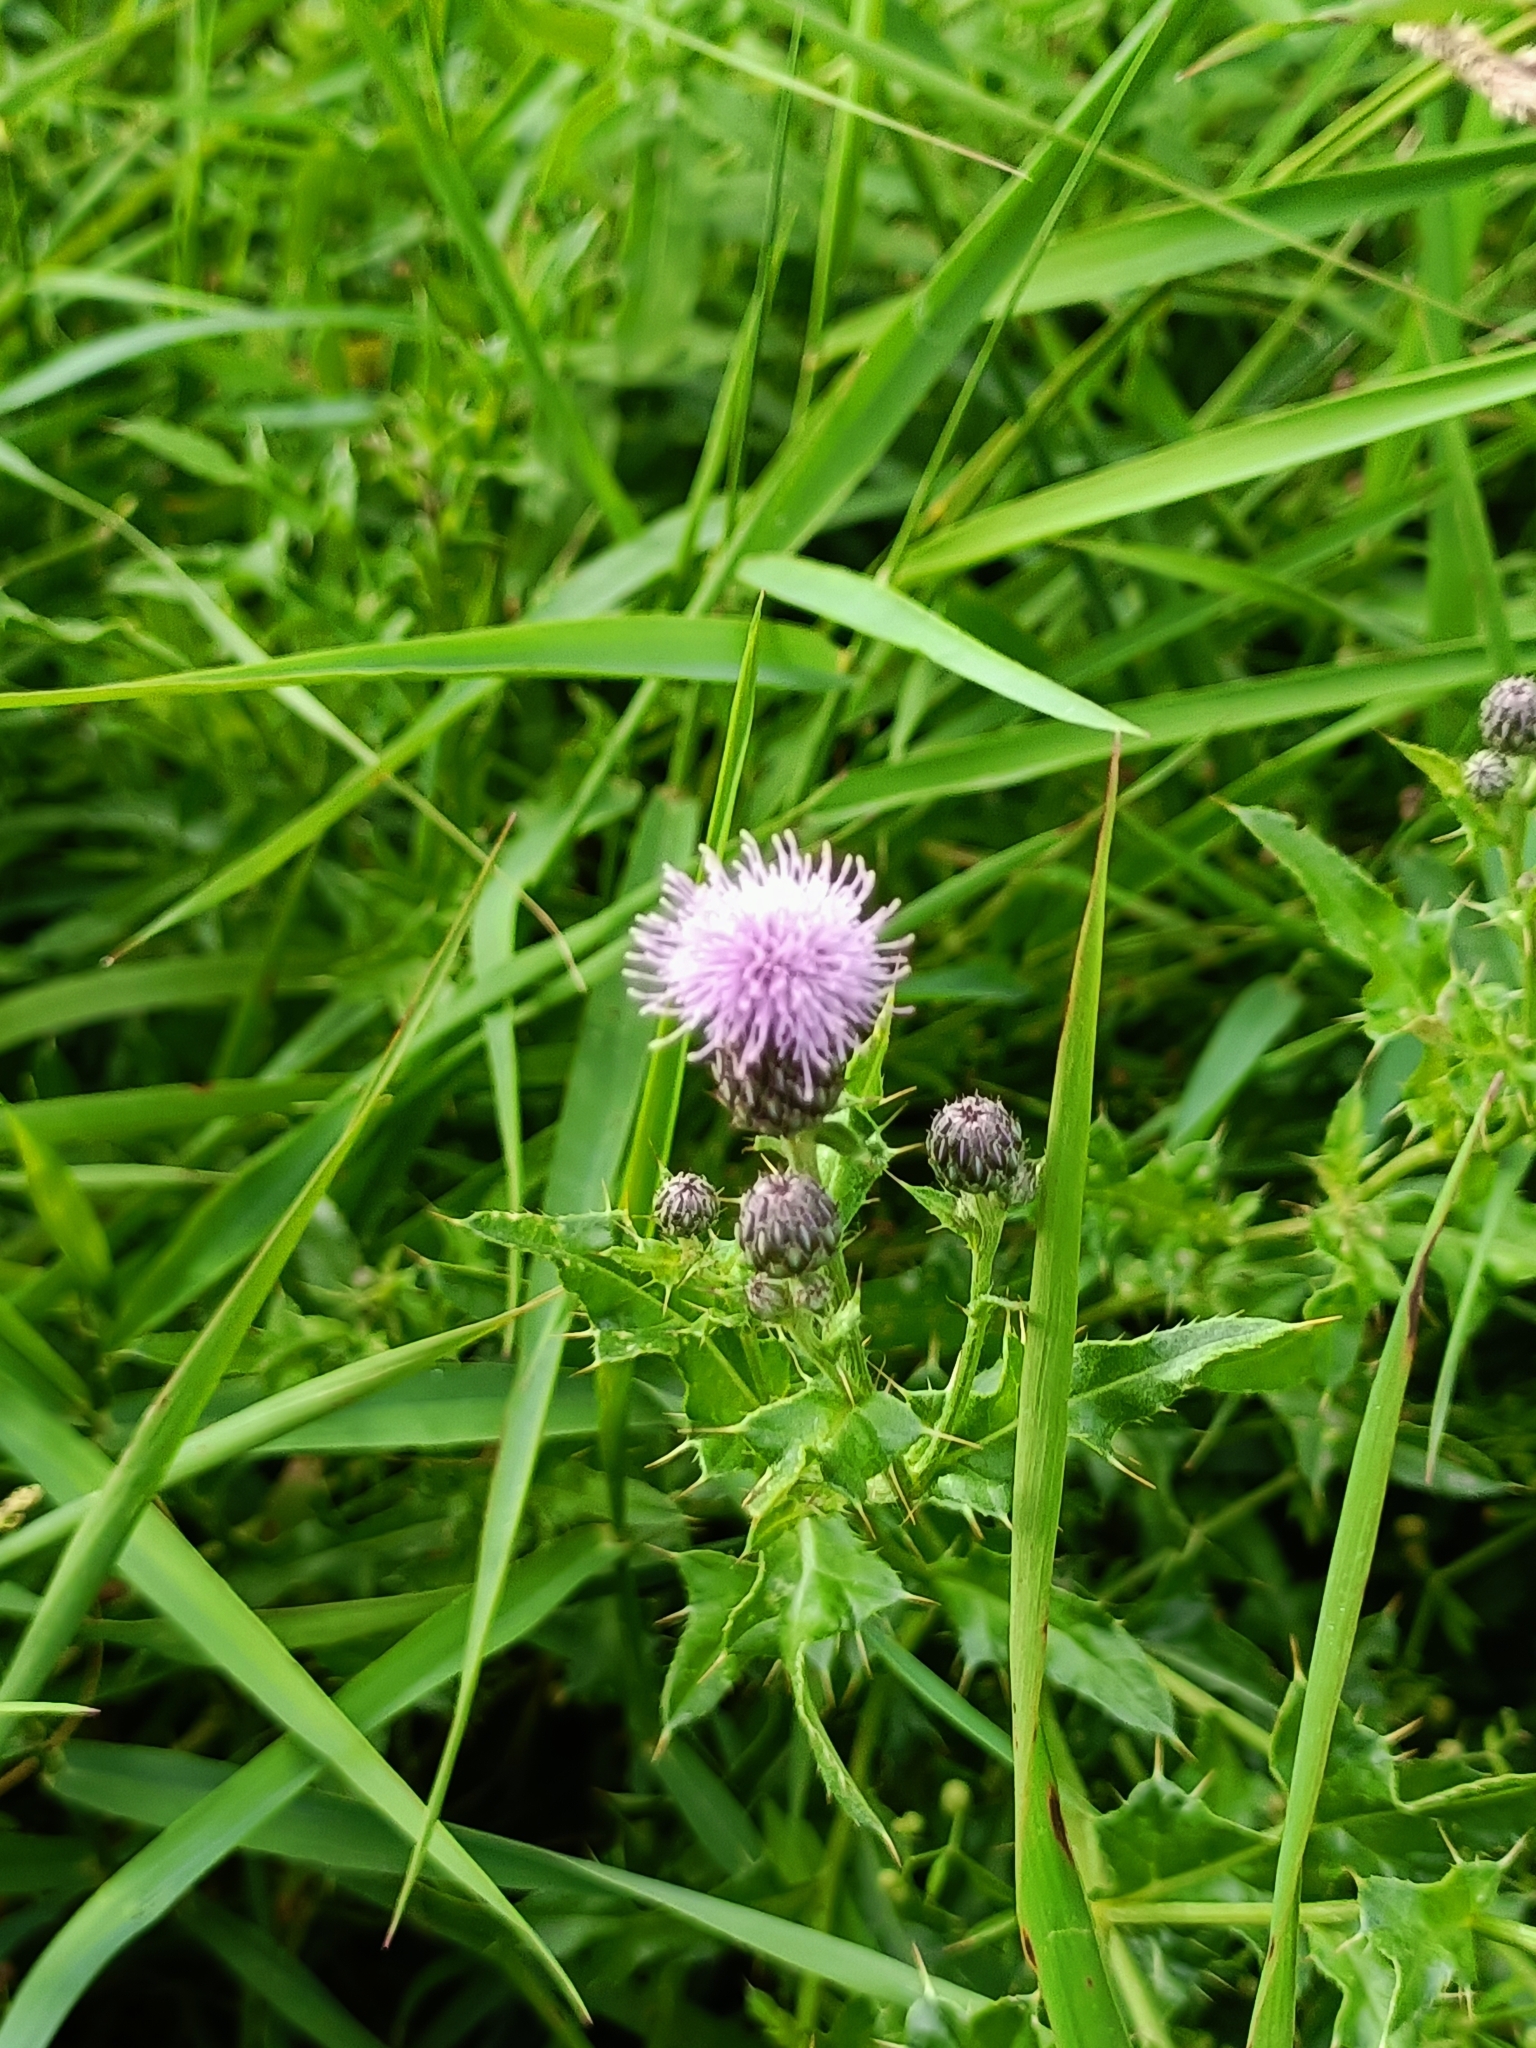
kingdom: Plantae
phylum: Tracheophyta
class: Magnoliopsida
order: Asterales
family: Asteraceae
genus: Cirsium
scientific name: Cirsium arvense
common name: Creeping thistle
